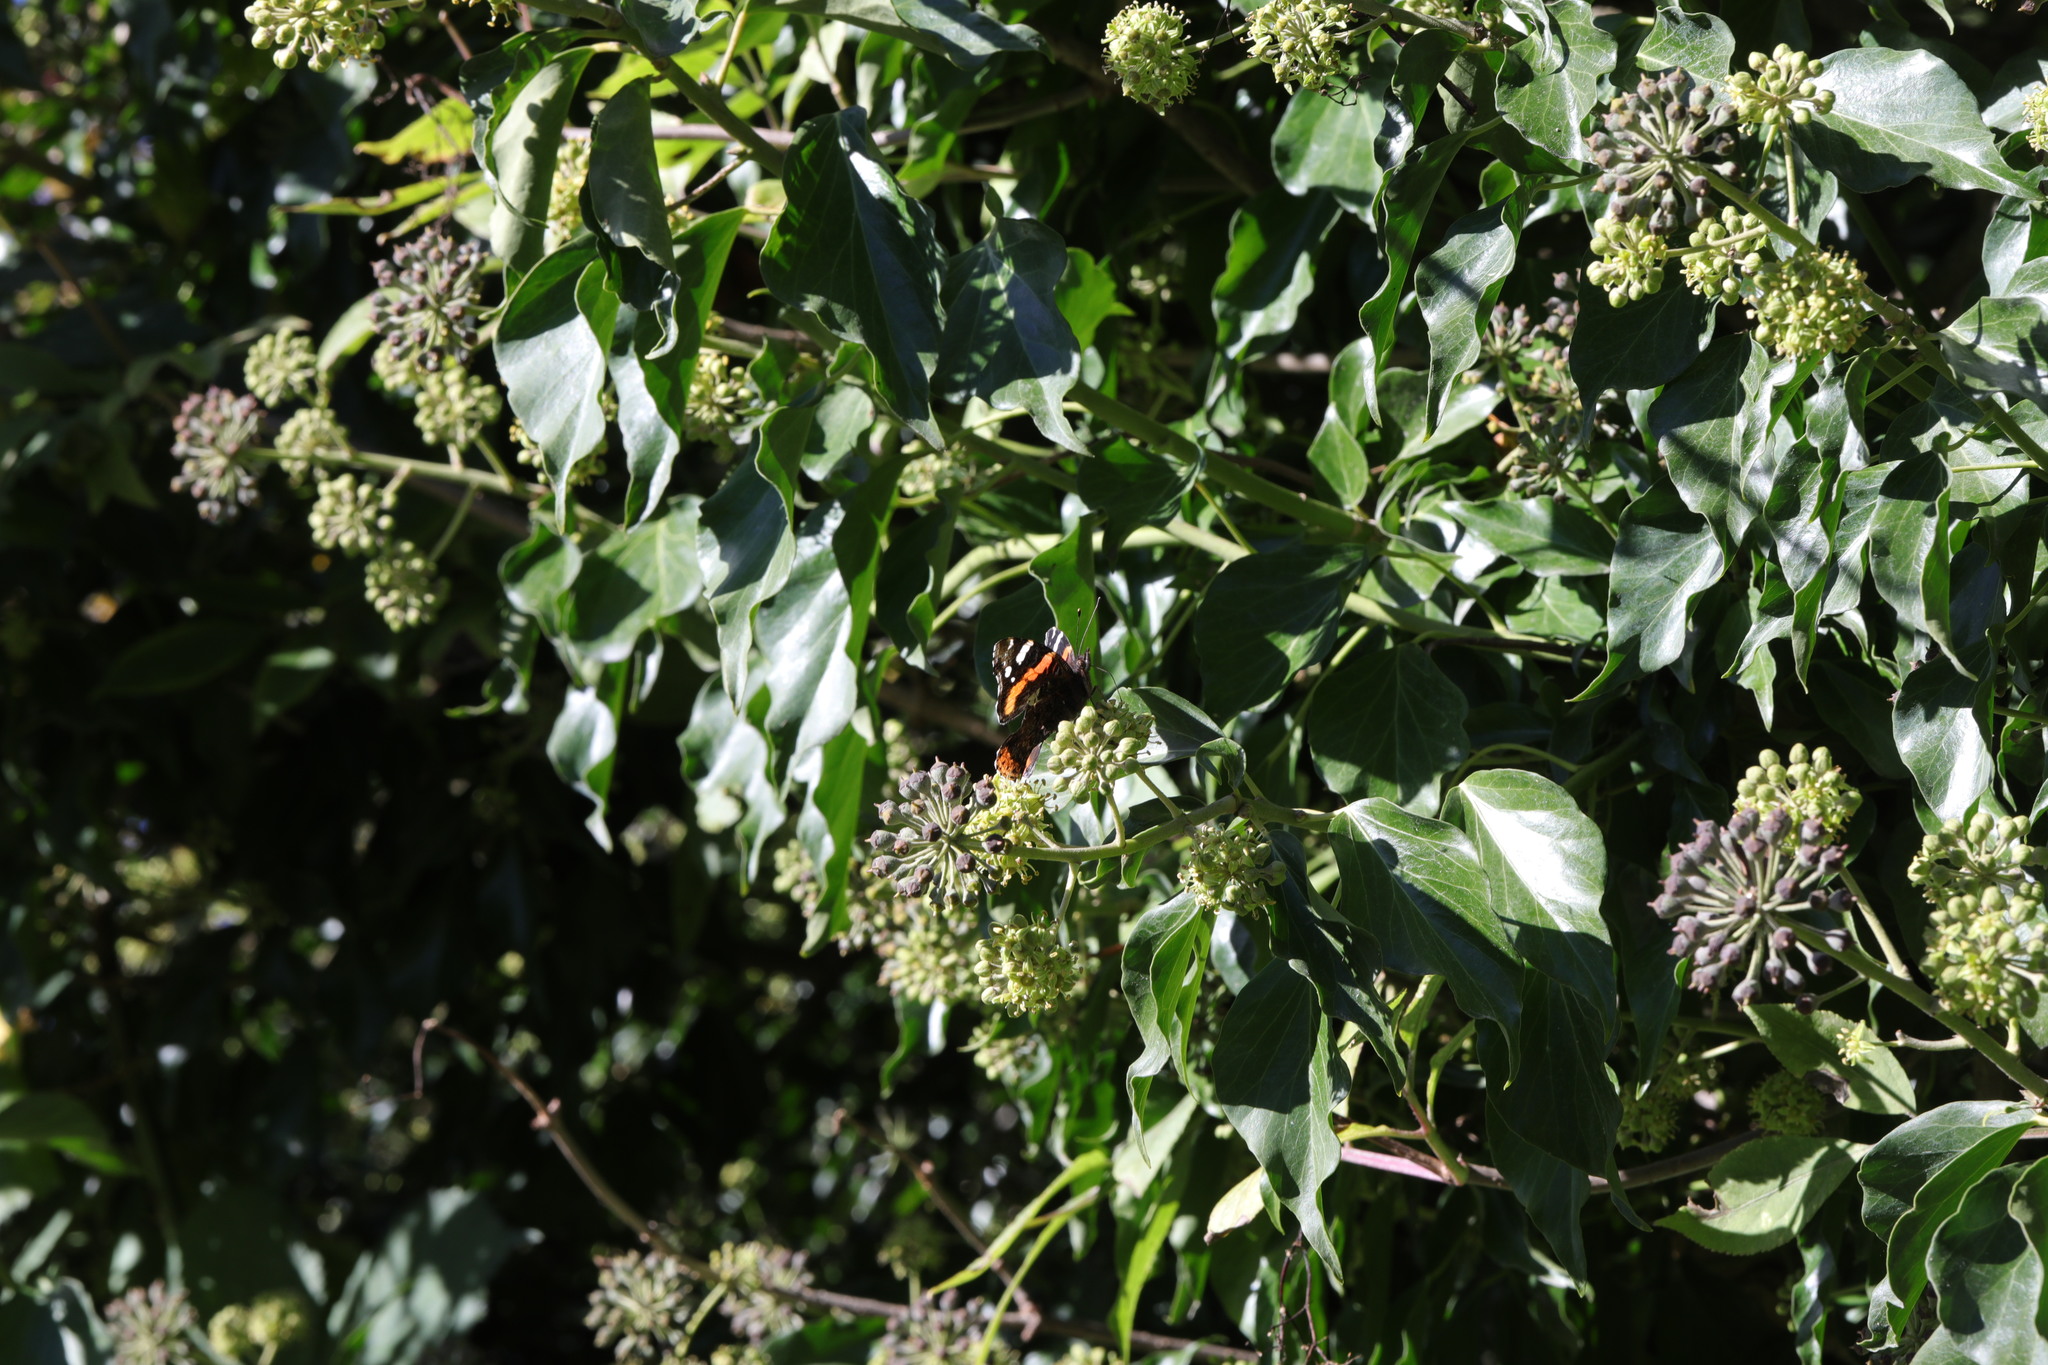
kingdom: Animalia
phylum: Arthropoda
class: Insecta
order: Lepidoptera
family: Nymphalidae
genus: Vanessa
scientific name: Vanessa atalanta
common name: Red admiral
